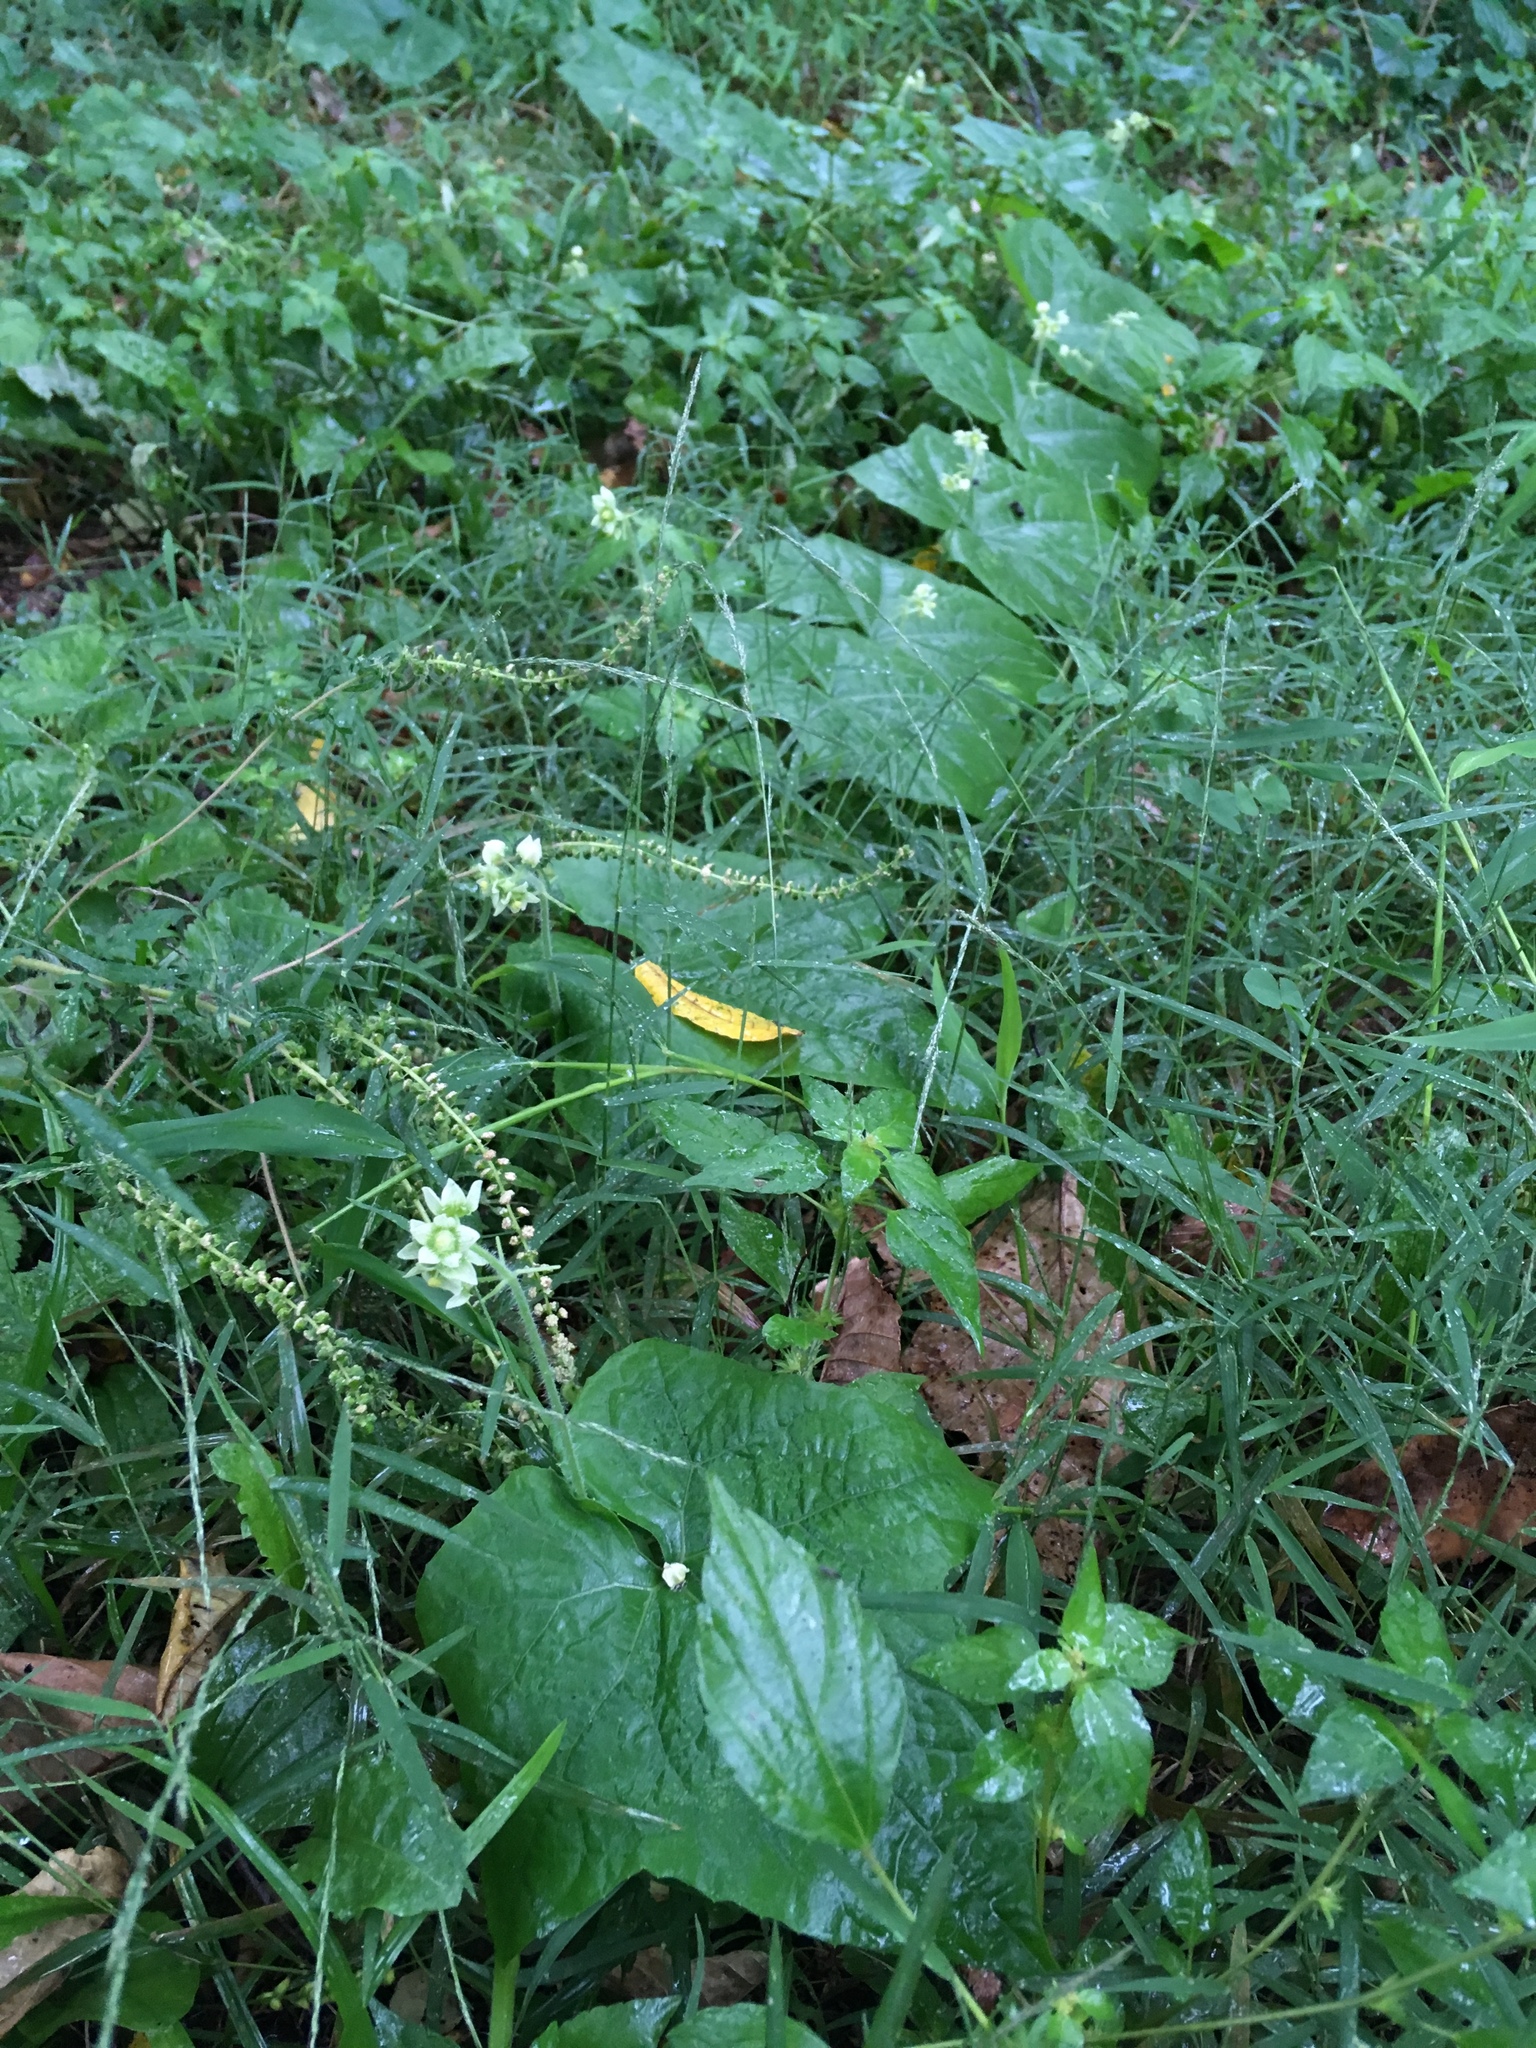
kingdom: Plantae
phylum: Tracheophyta
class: Magnoliopsida
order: Cucurbitales
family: Cucurbitaceae
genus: Sicyos
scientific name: Sicyos angulatus
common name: Angled burr cucumber
